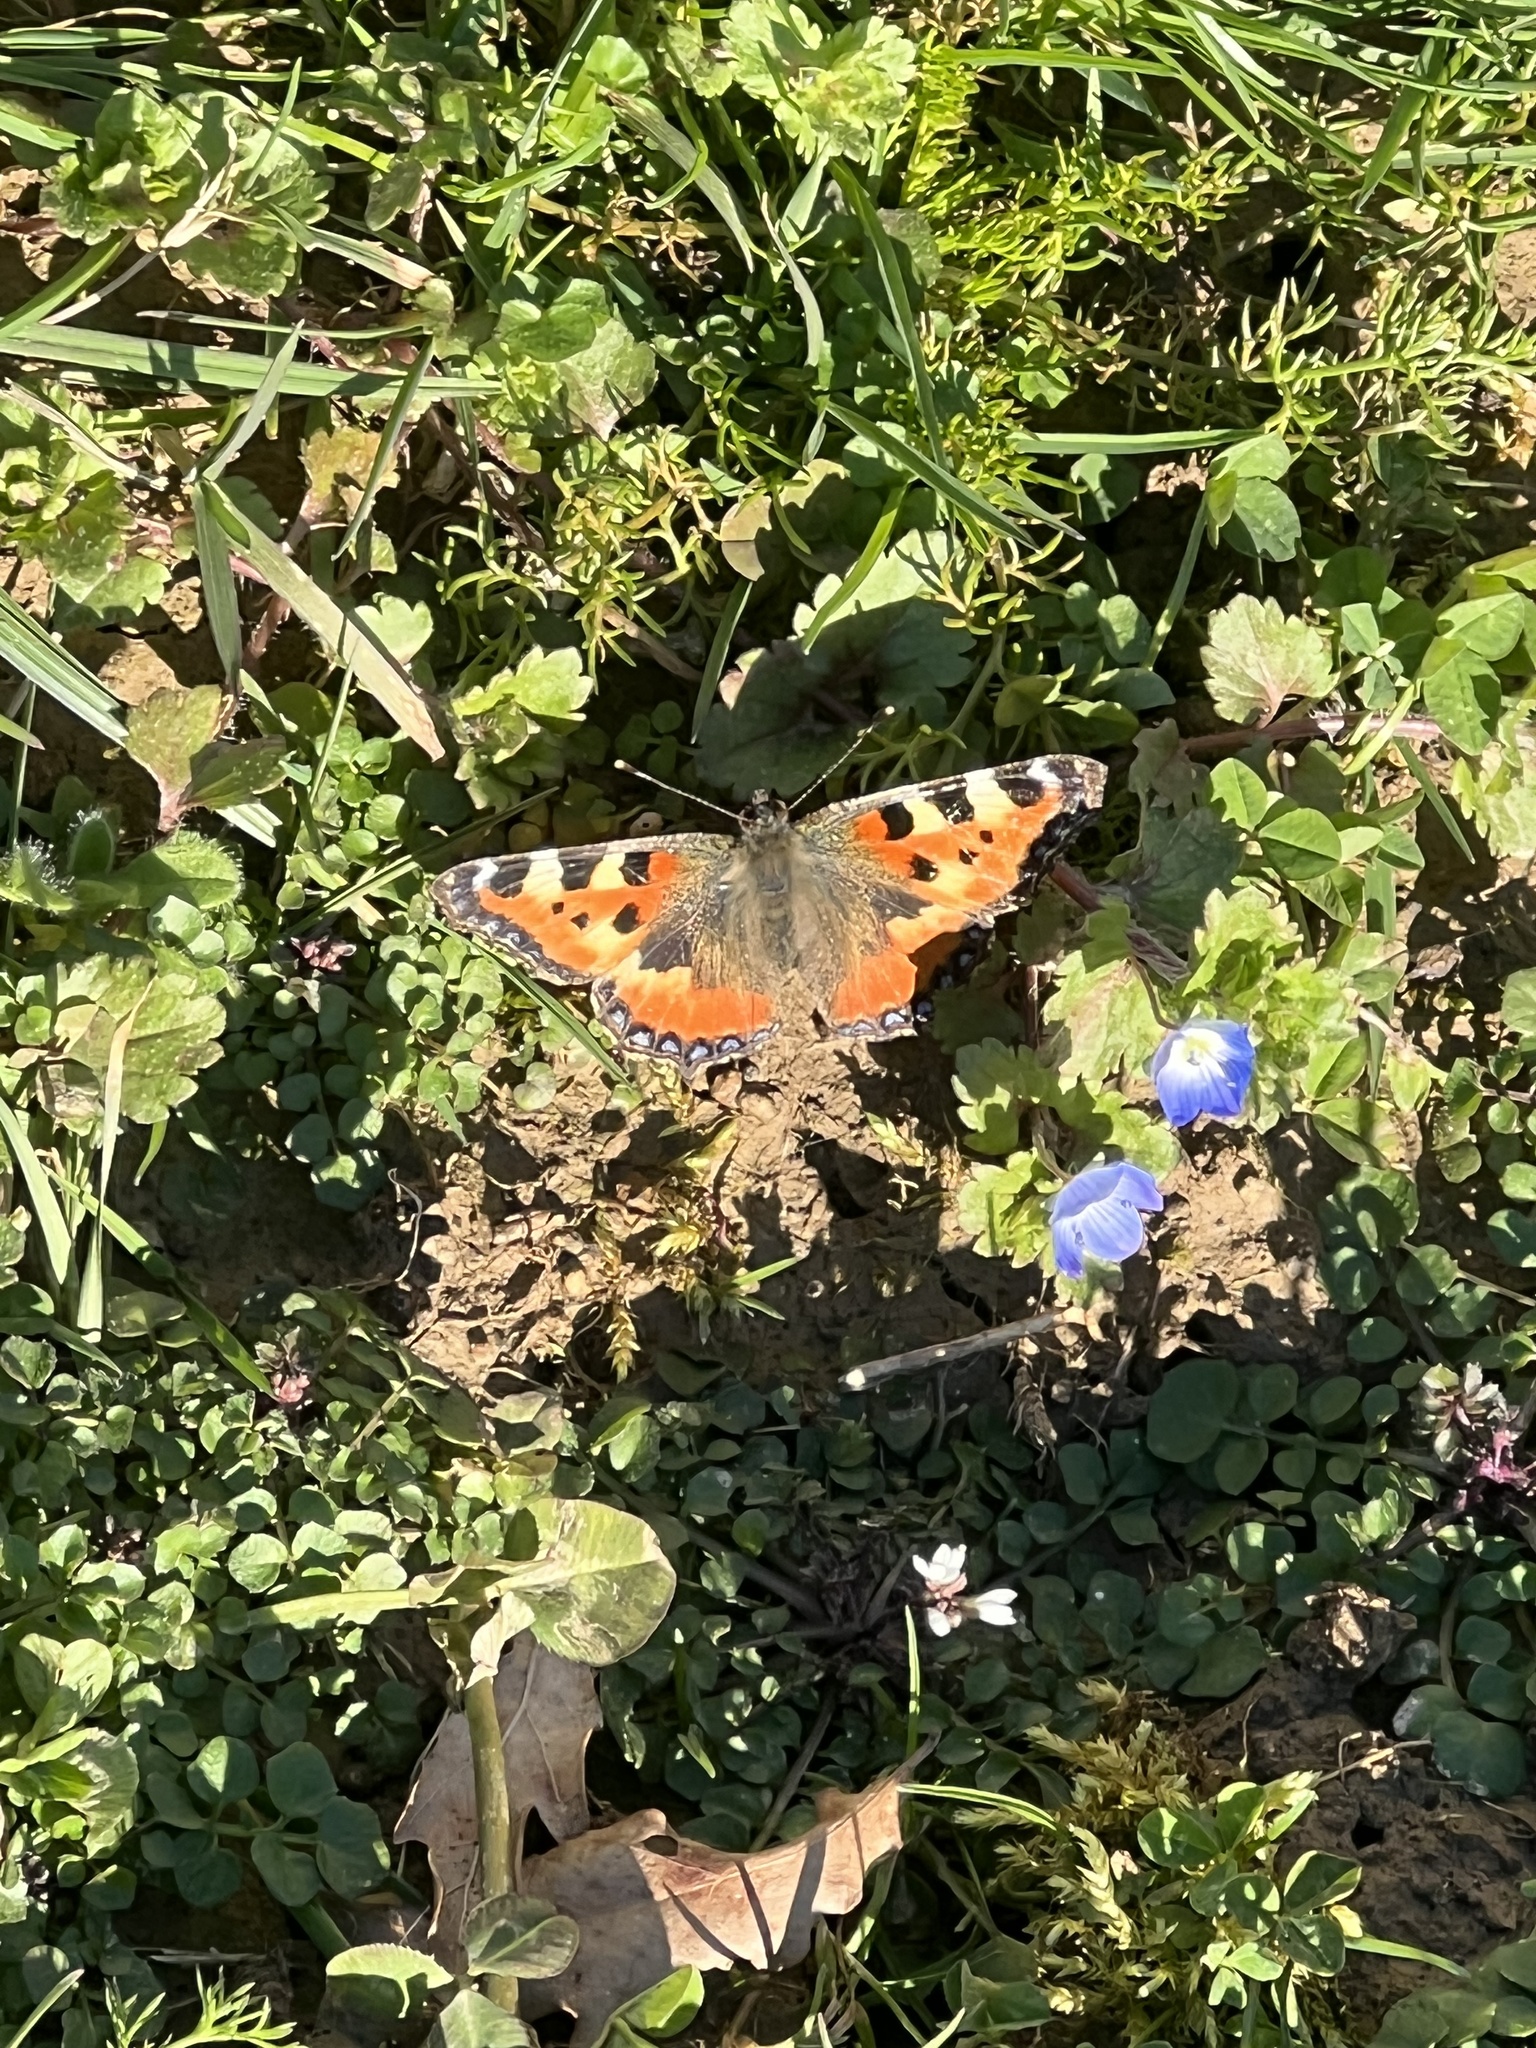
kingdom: Animalia
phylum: Arthropoda
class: Insecta
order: Lepidoptera
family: Nymphalidae
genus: Aglais
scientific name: Aglais urticae
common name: Small tortoiseshell
